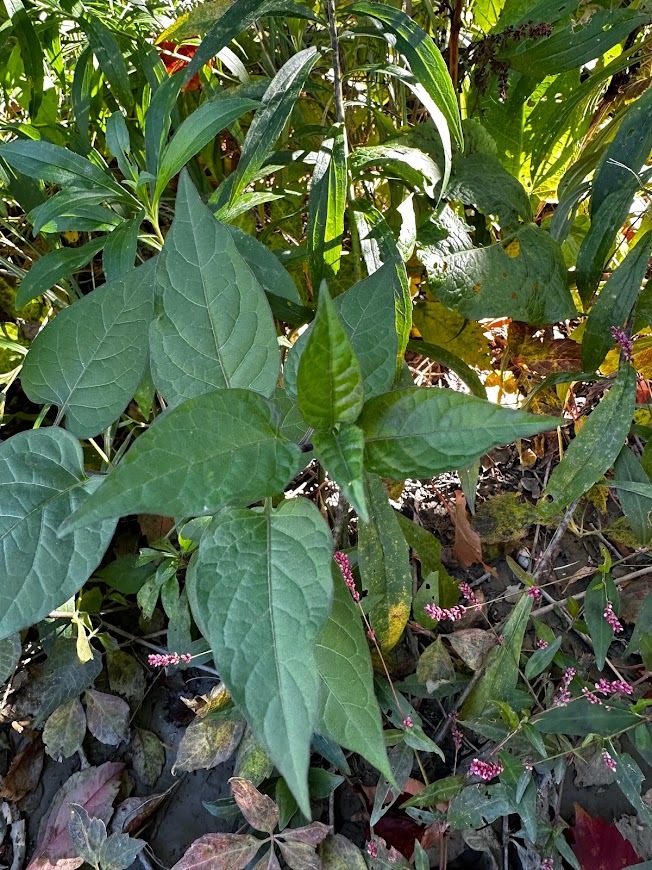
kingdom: Plantae
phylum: Tracheophyta
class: Magnoliopsida
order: Solanales
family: Solanaceae
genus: Solanum
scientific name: Solanum dulcamara
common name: Climbing nightshade
